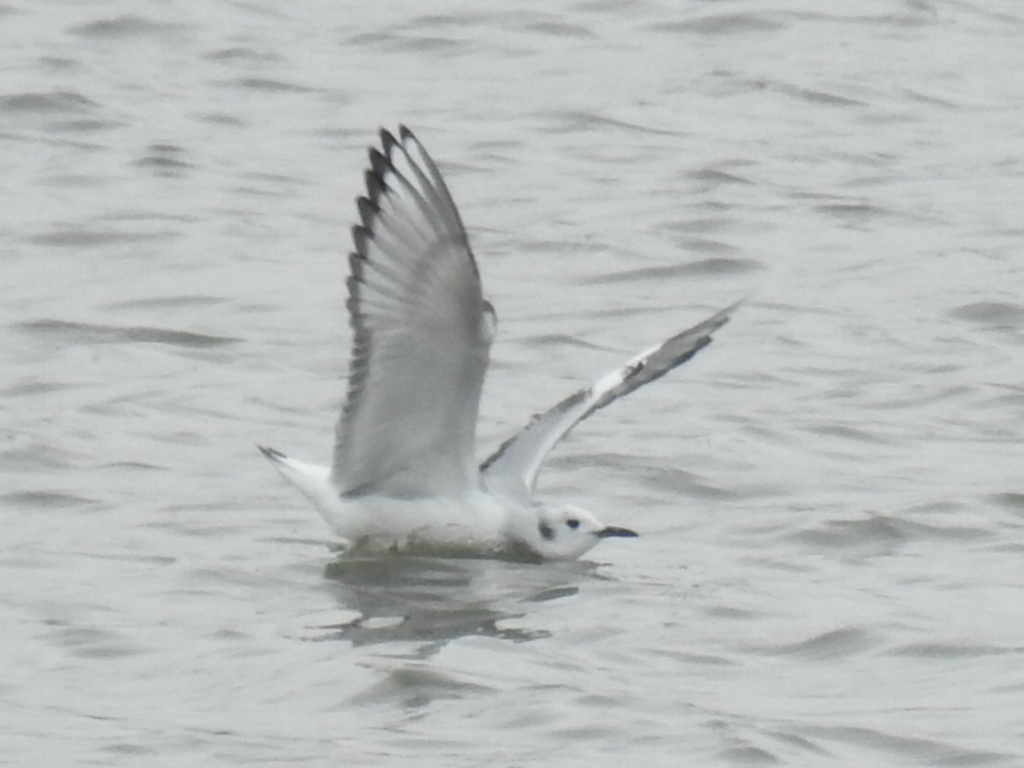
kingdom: Animalia
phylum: Chordata
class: Aves
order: Charadriiformes
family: Laridae
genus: Chroicocephalus
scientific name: Chroicocephalus philadelphia
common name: Bonaparte's gull
